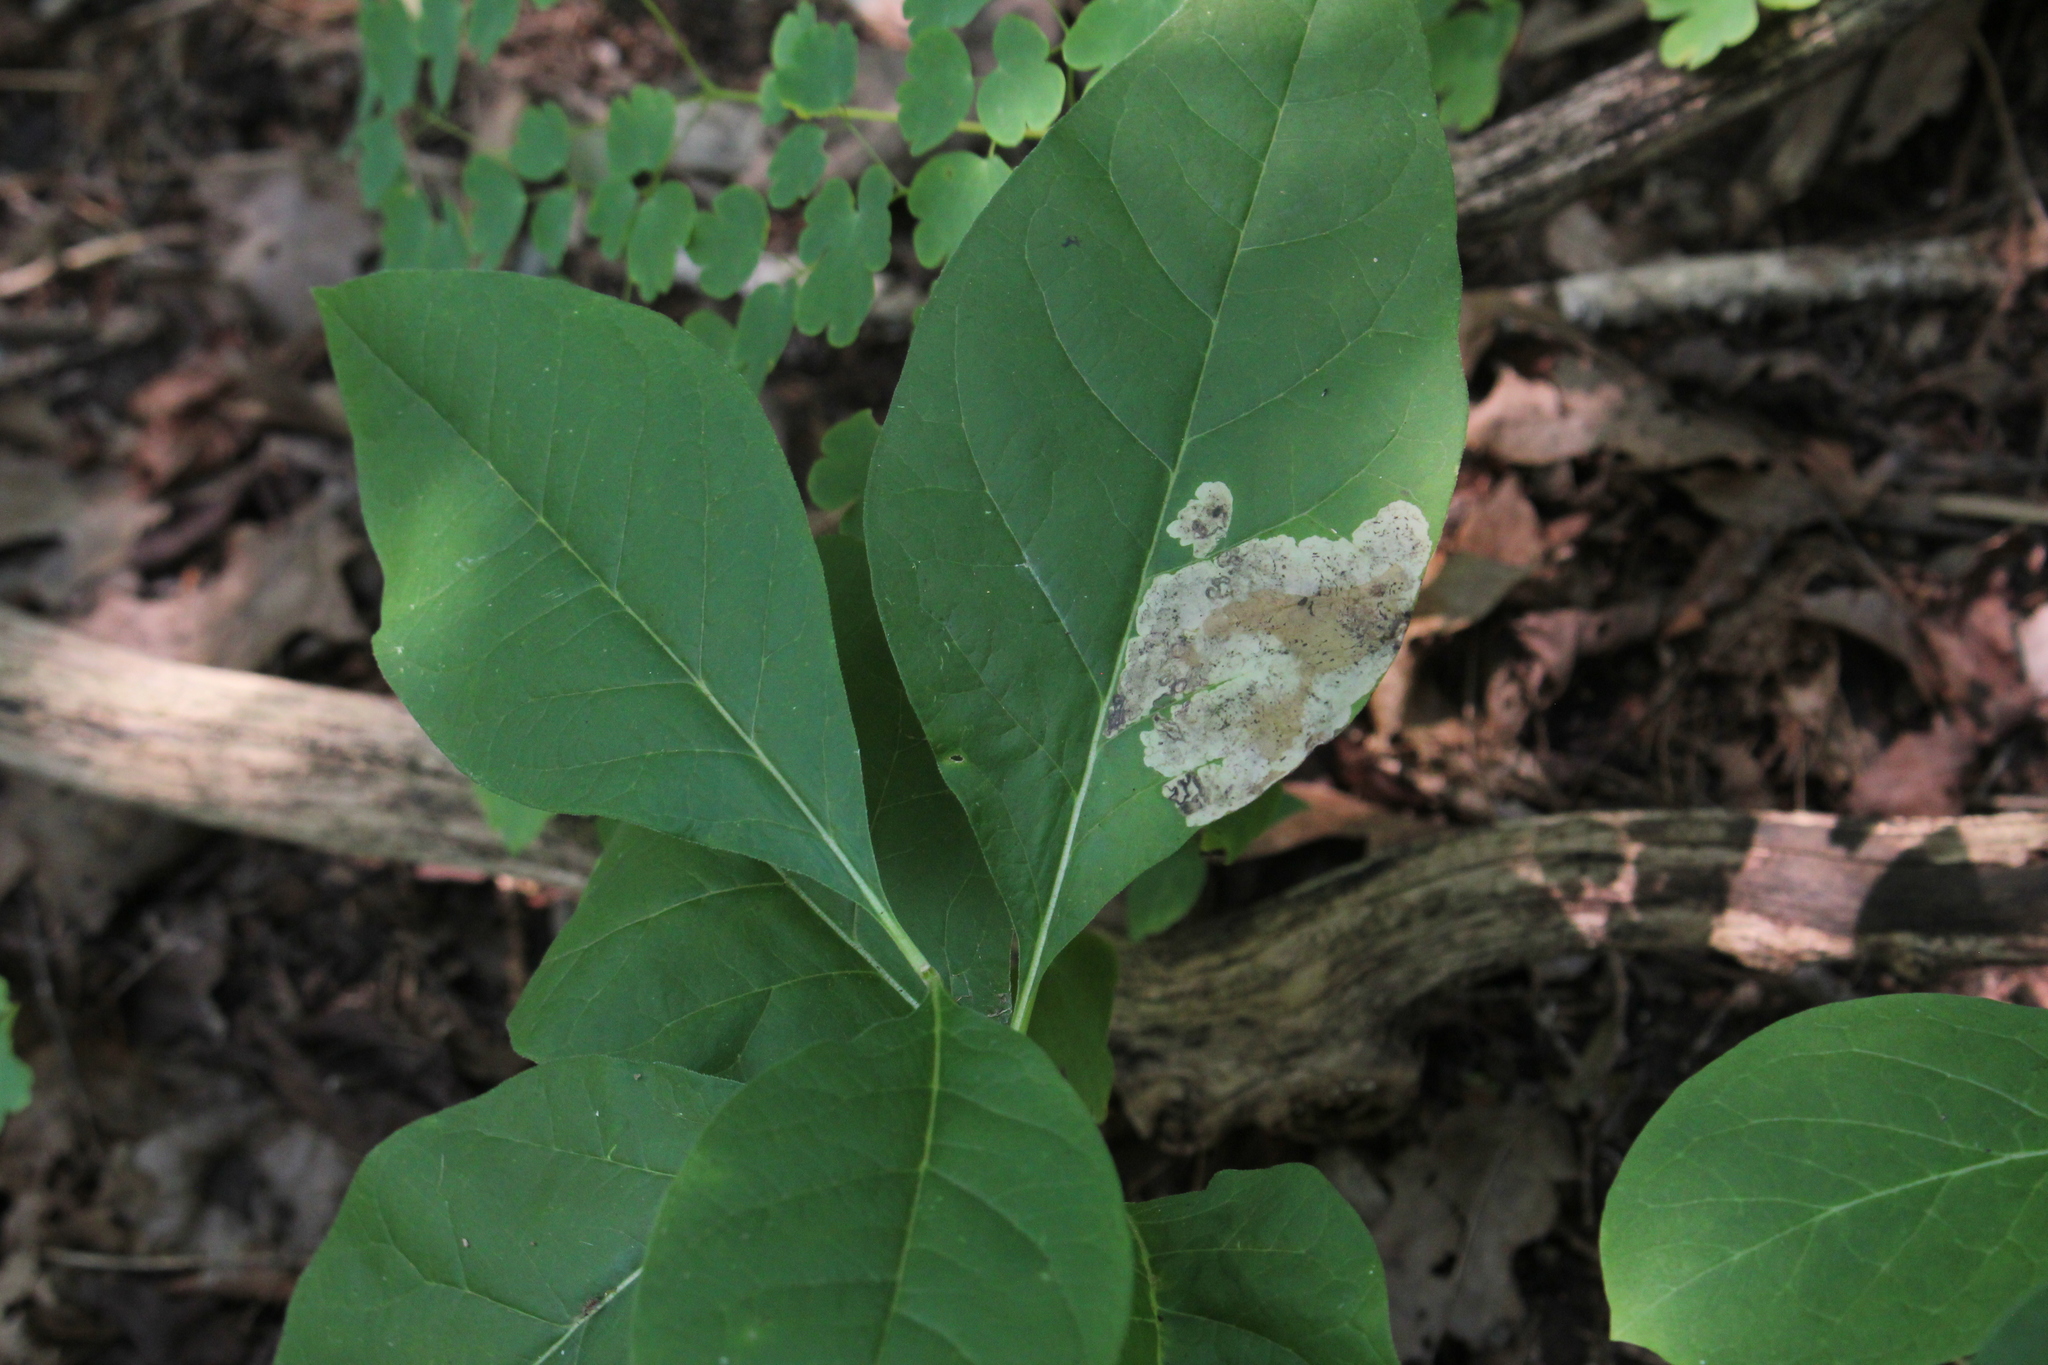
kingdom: Animalia
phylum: Arthropoda
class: Insecta
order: Diptera
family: Agromyzidae
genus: Liriomyza
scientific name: Liriomyza asclepiadis
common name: Milkweed leaf-miner fly
